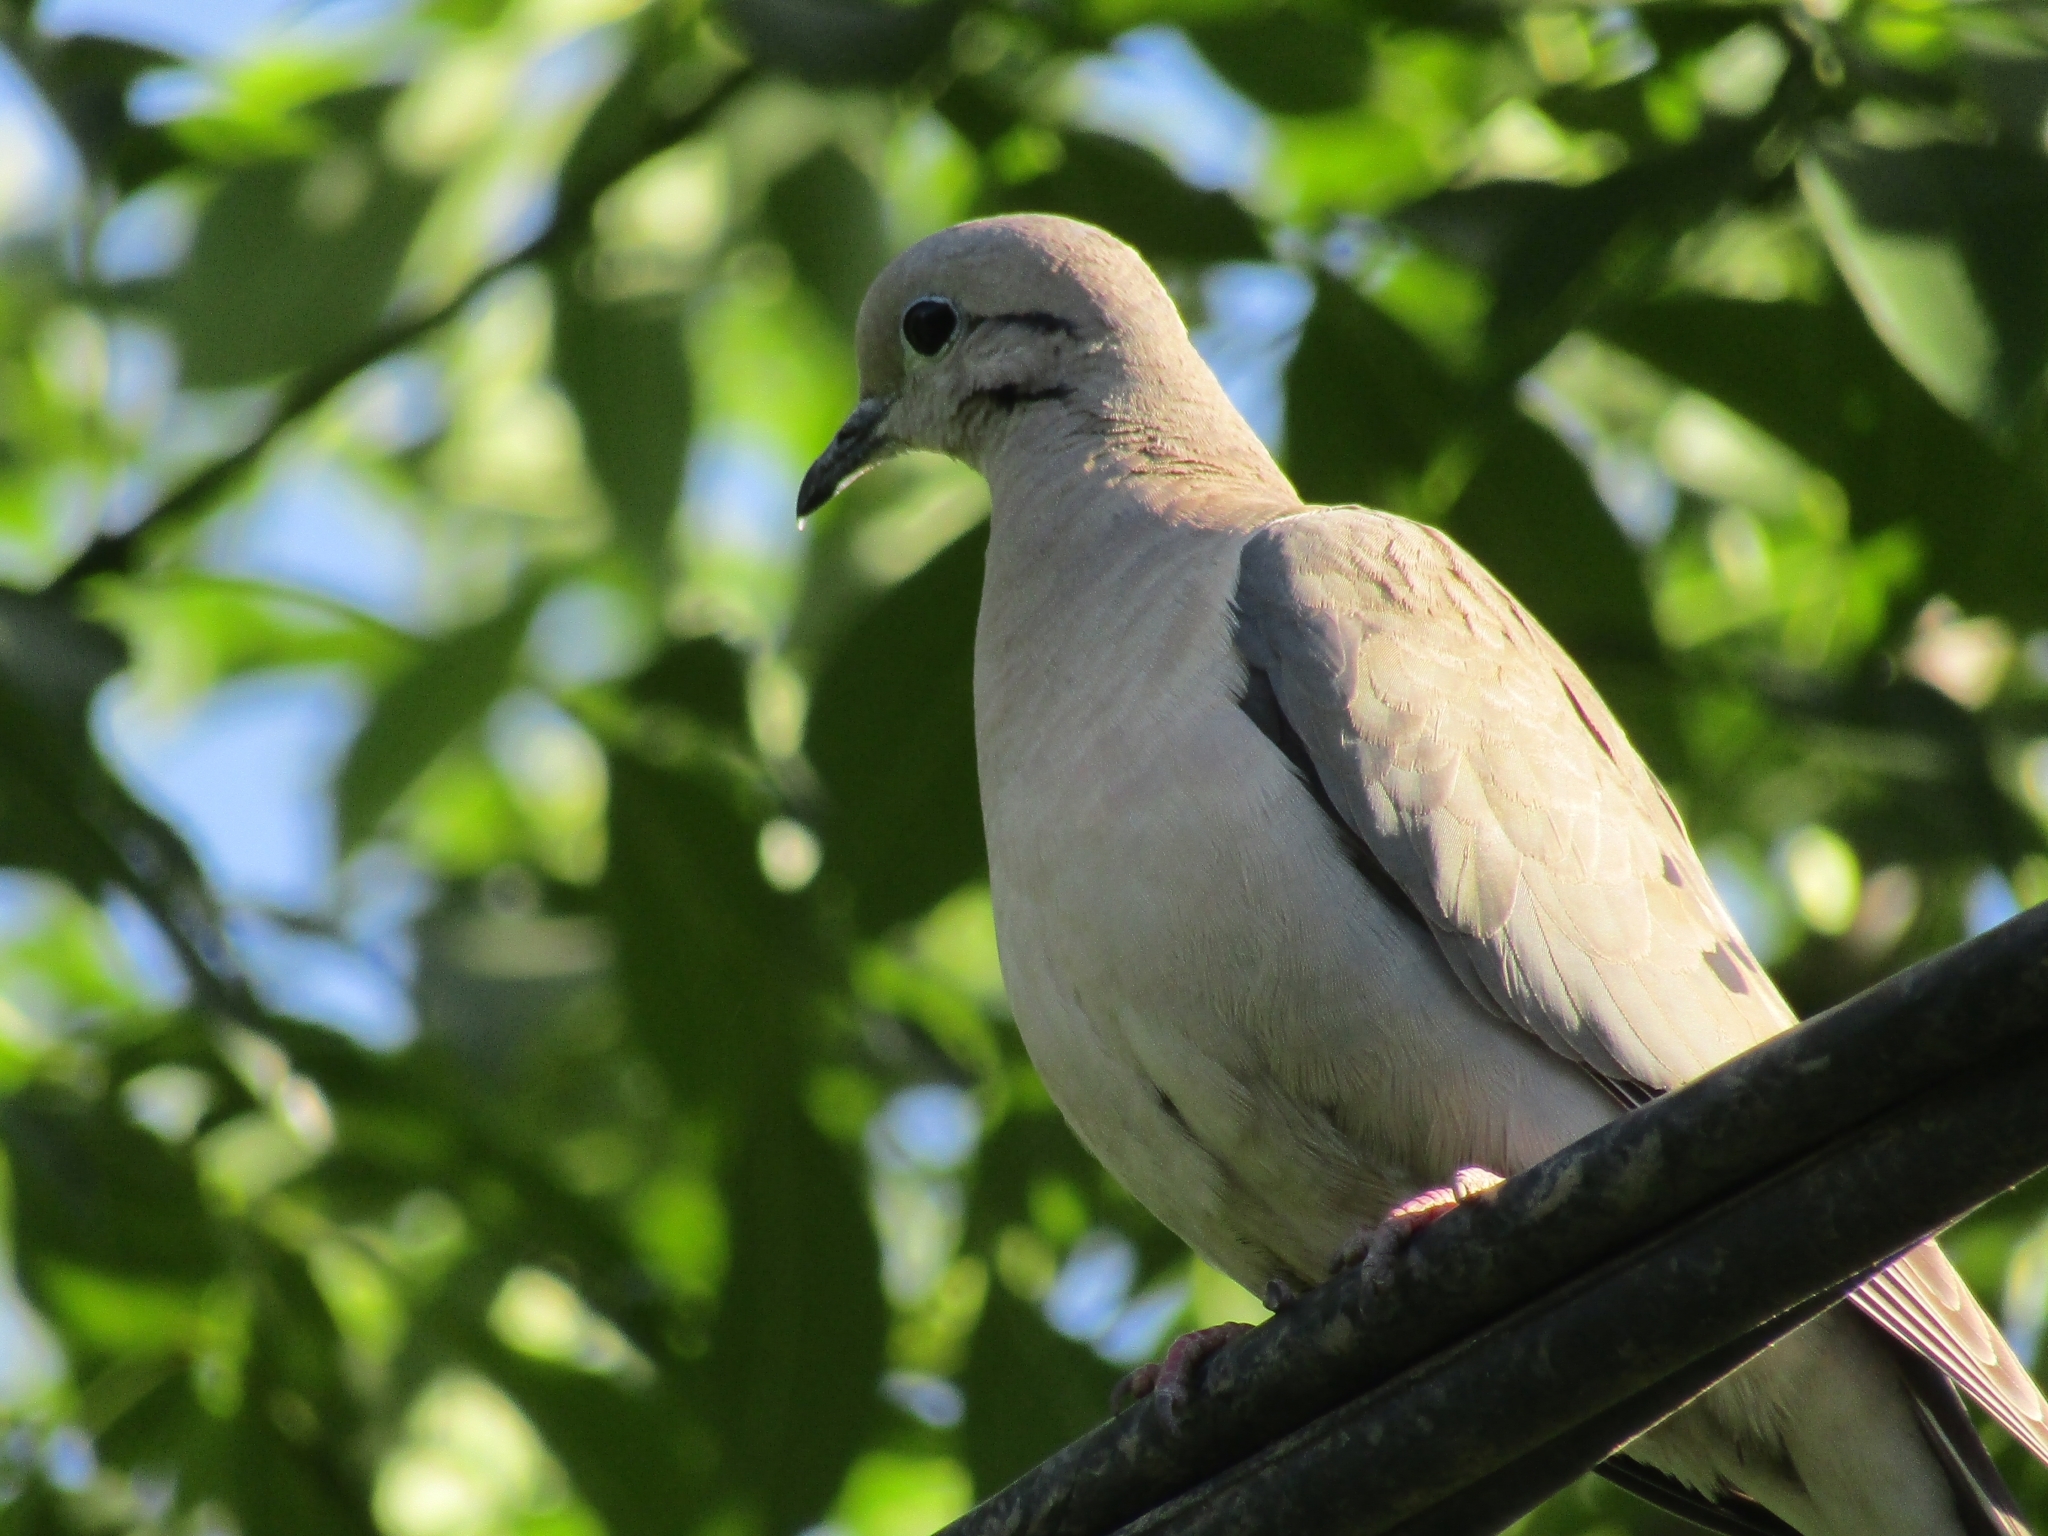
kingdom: Animalia
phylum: Chordata
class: Aves
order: Columbiformes
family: Columbidae
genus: Zenaida
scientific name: Zenaida auriculata
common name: Eared dove
